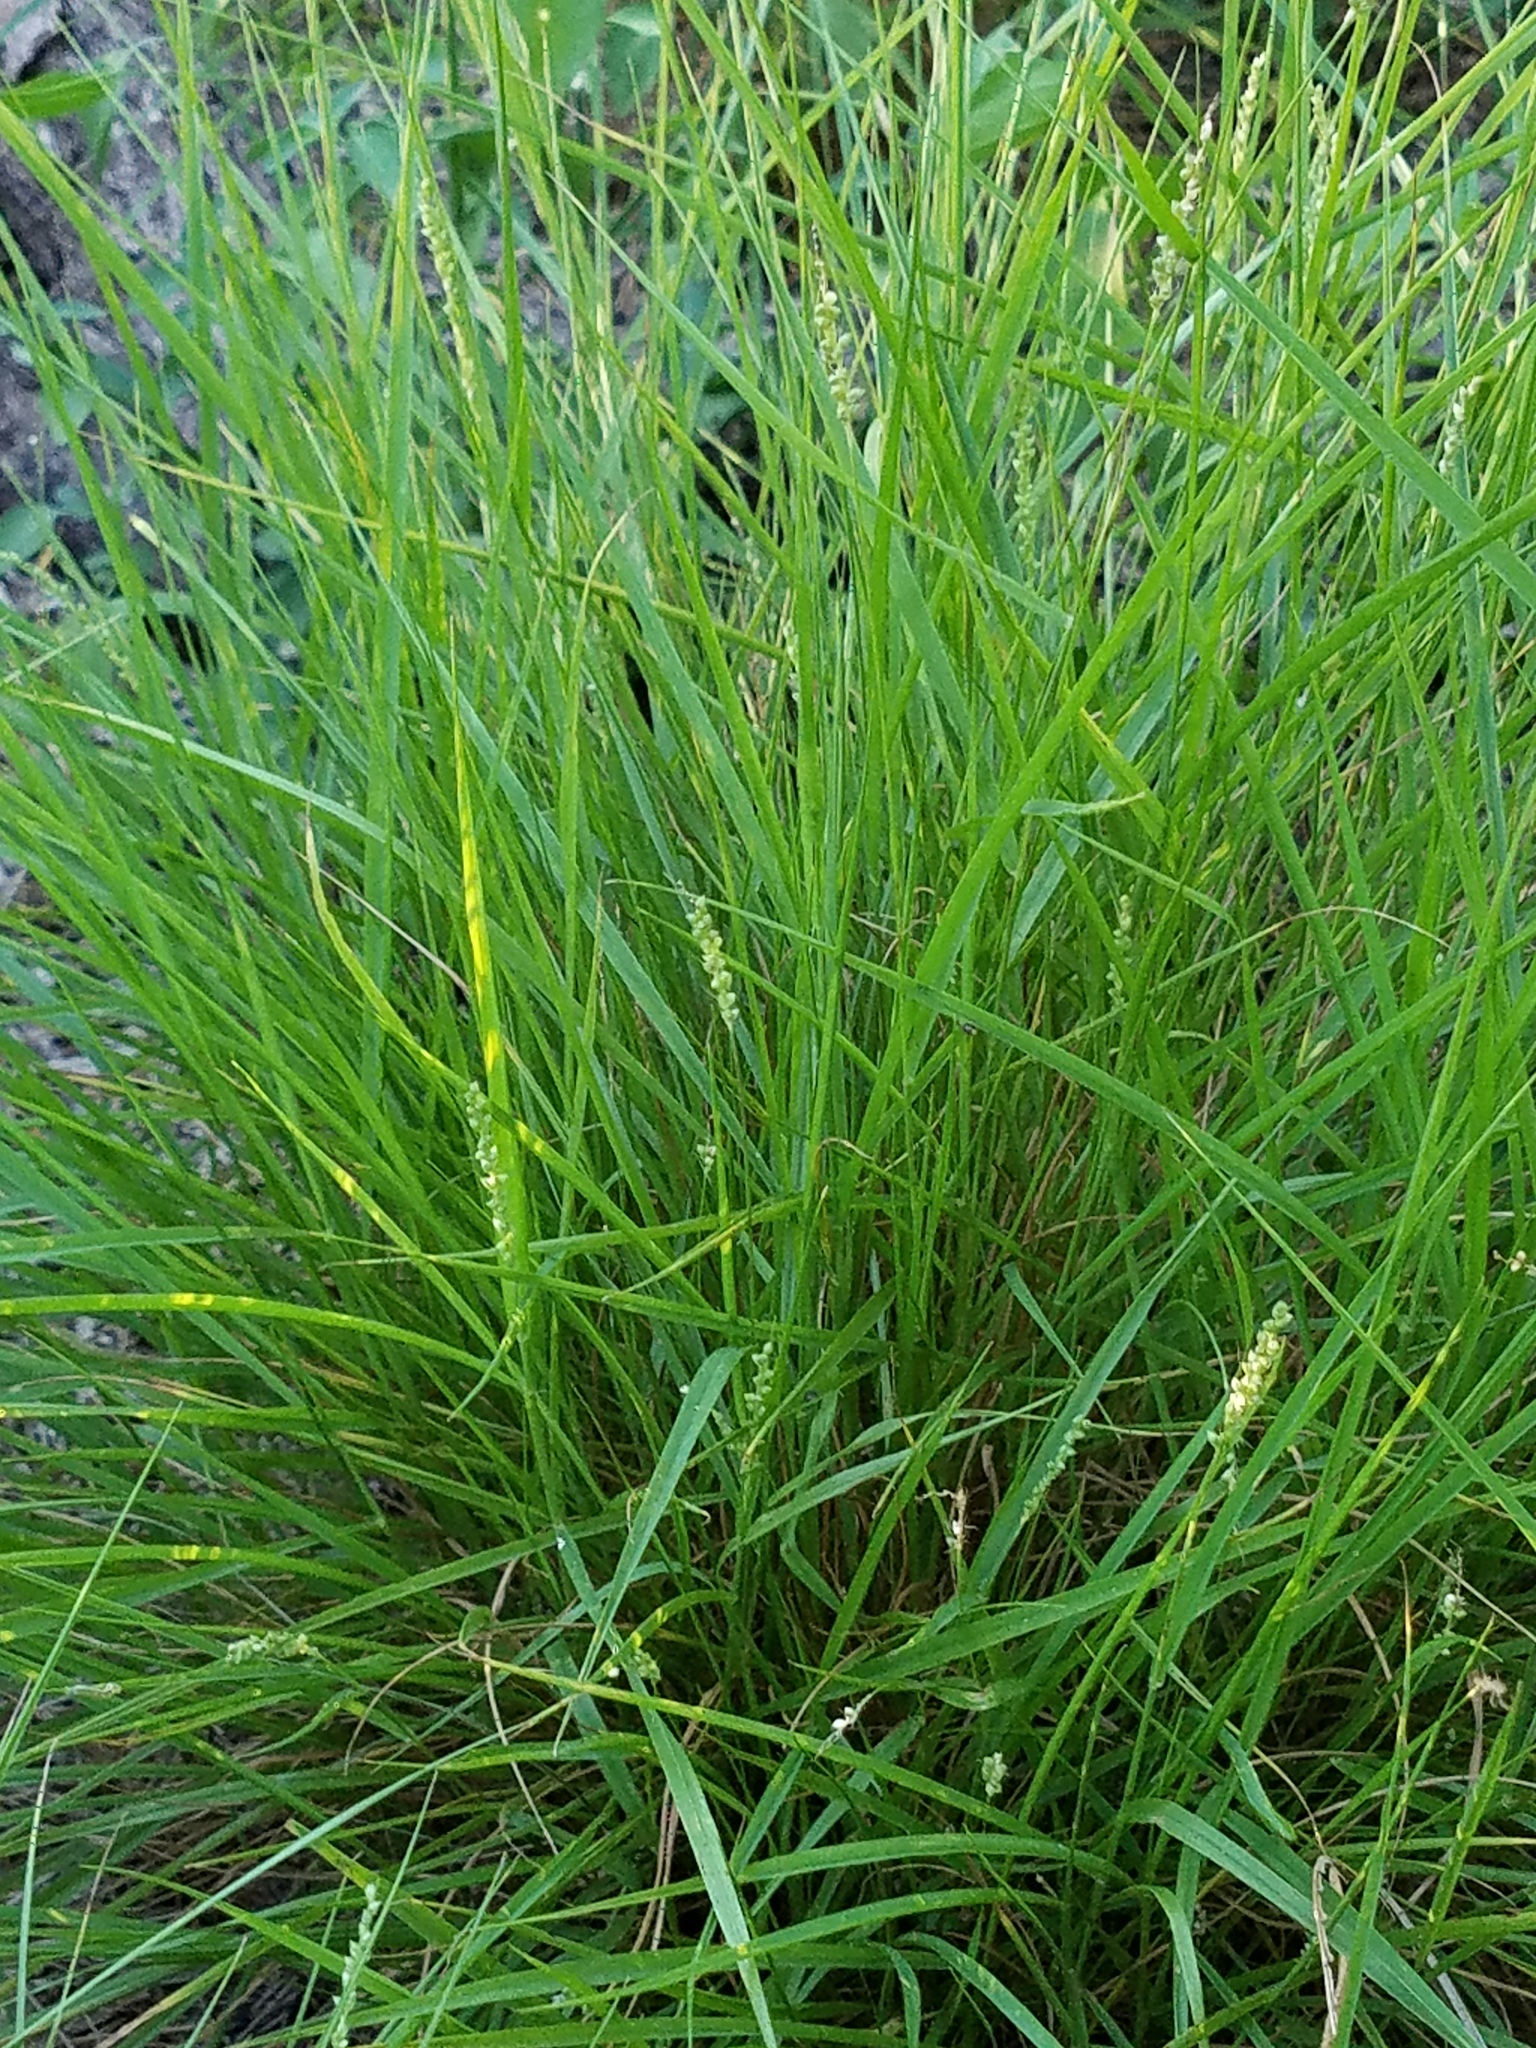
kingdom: Plantae
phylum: Tracheophyta
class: Liliopsida
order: Poales
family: Poaceae
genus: Setaria
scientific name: Setaria leucopila
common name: Plains bristle grass
